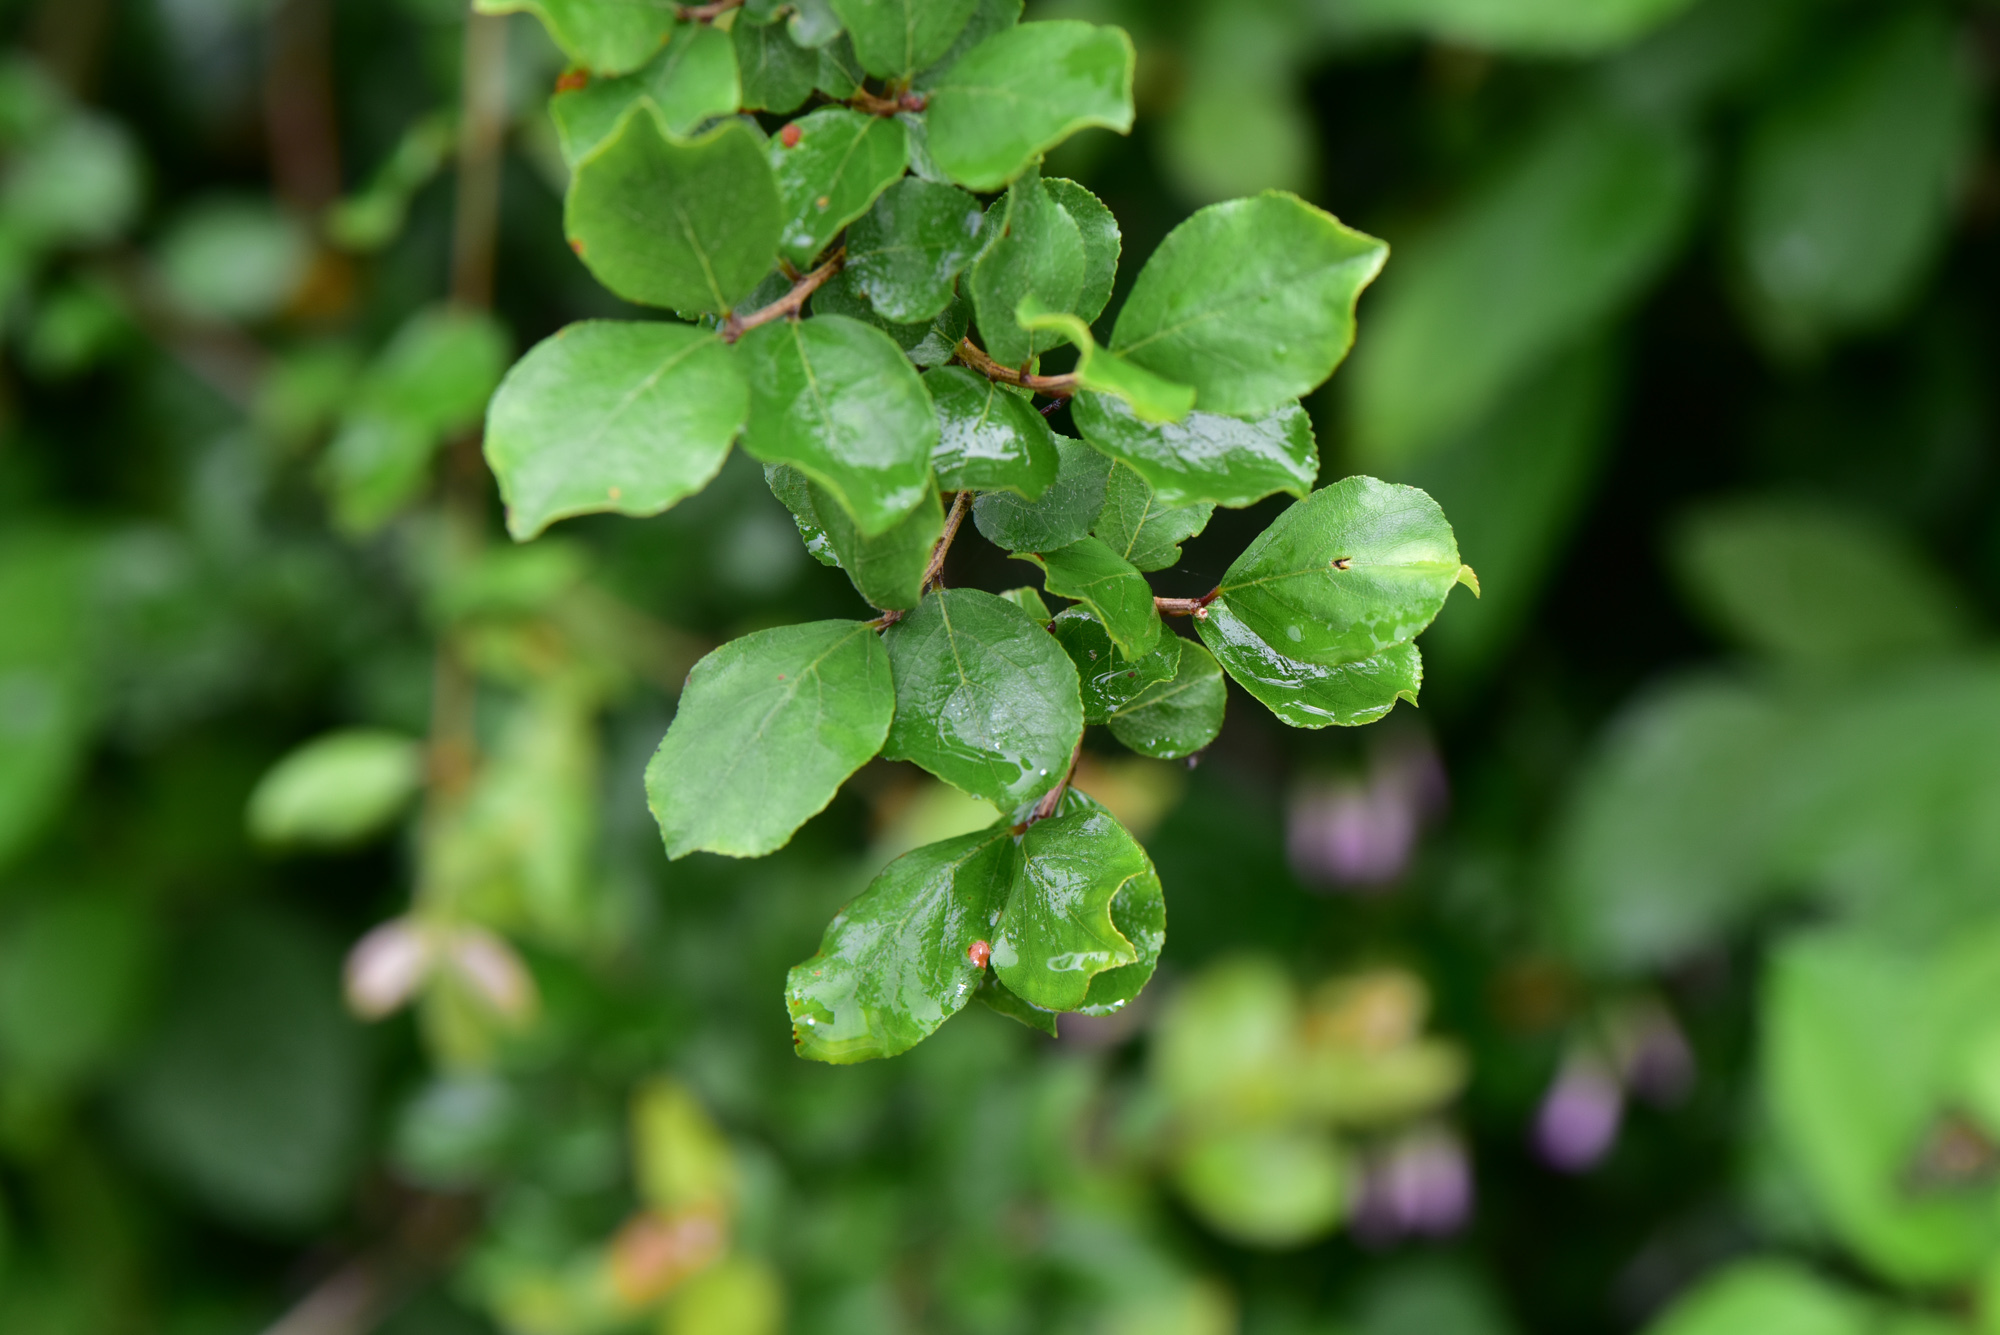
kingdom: Plantae
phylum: Tracheophyta
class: Magnoliopsida
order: Rosales
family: Rhamnaceae
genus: Sageretia
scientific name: Sageretia thea
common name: Pauper's-tea
